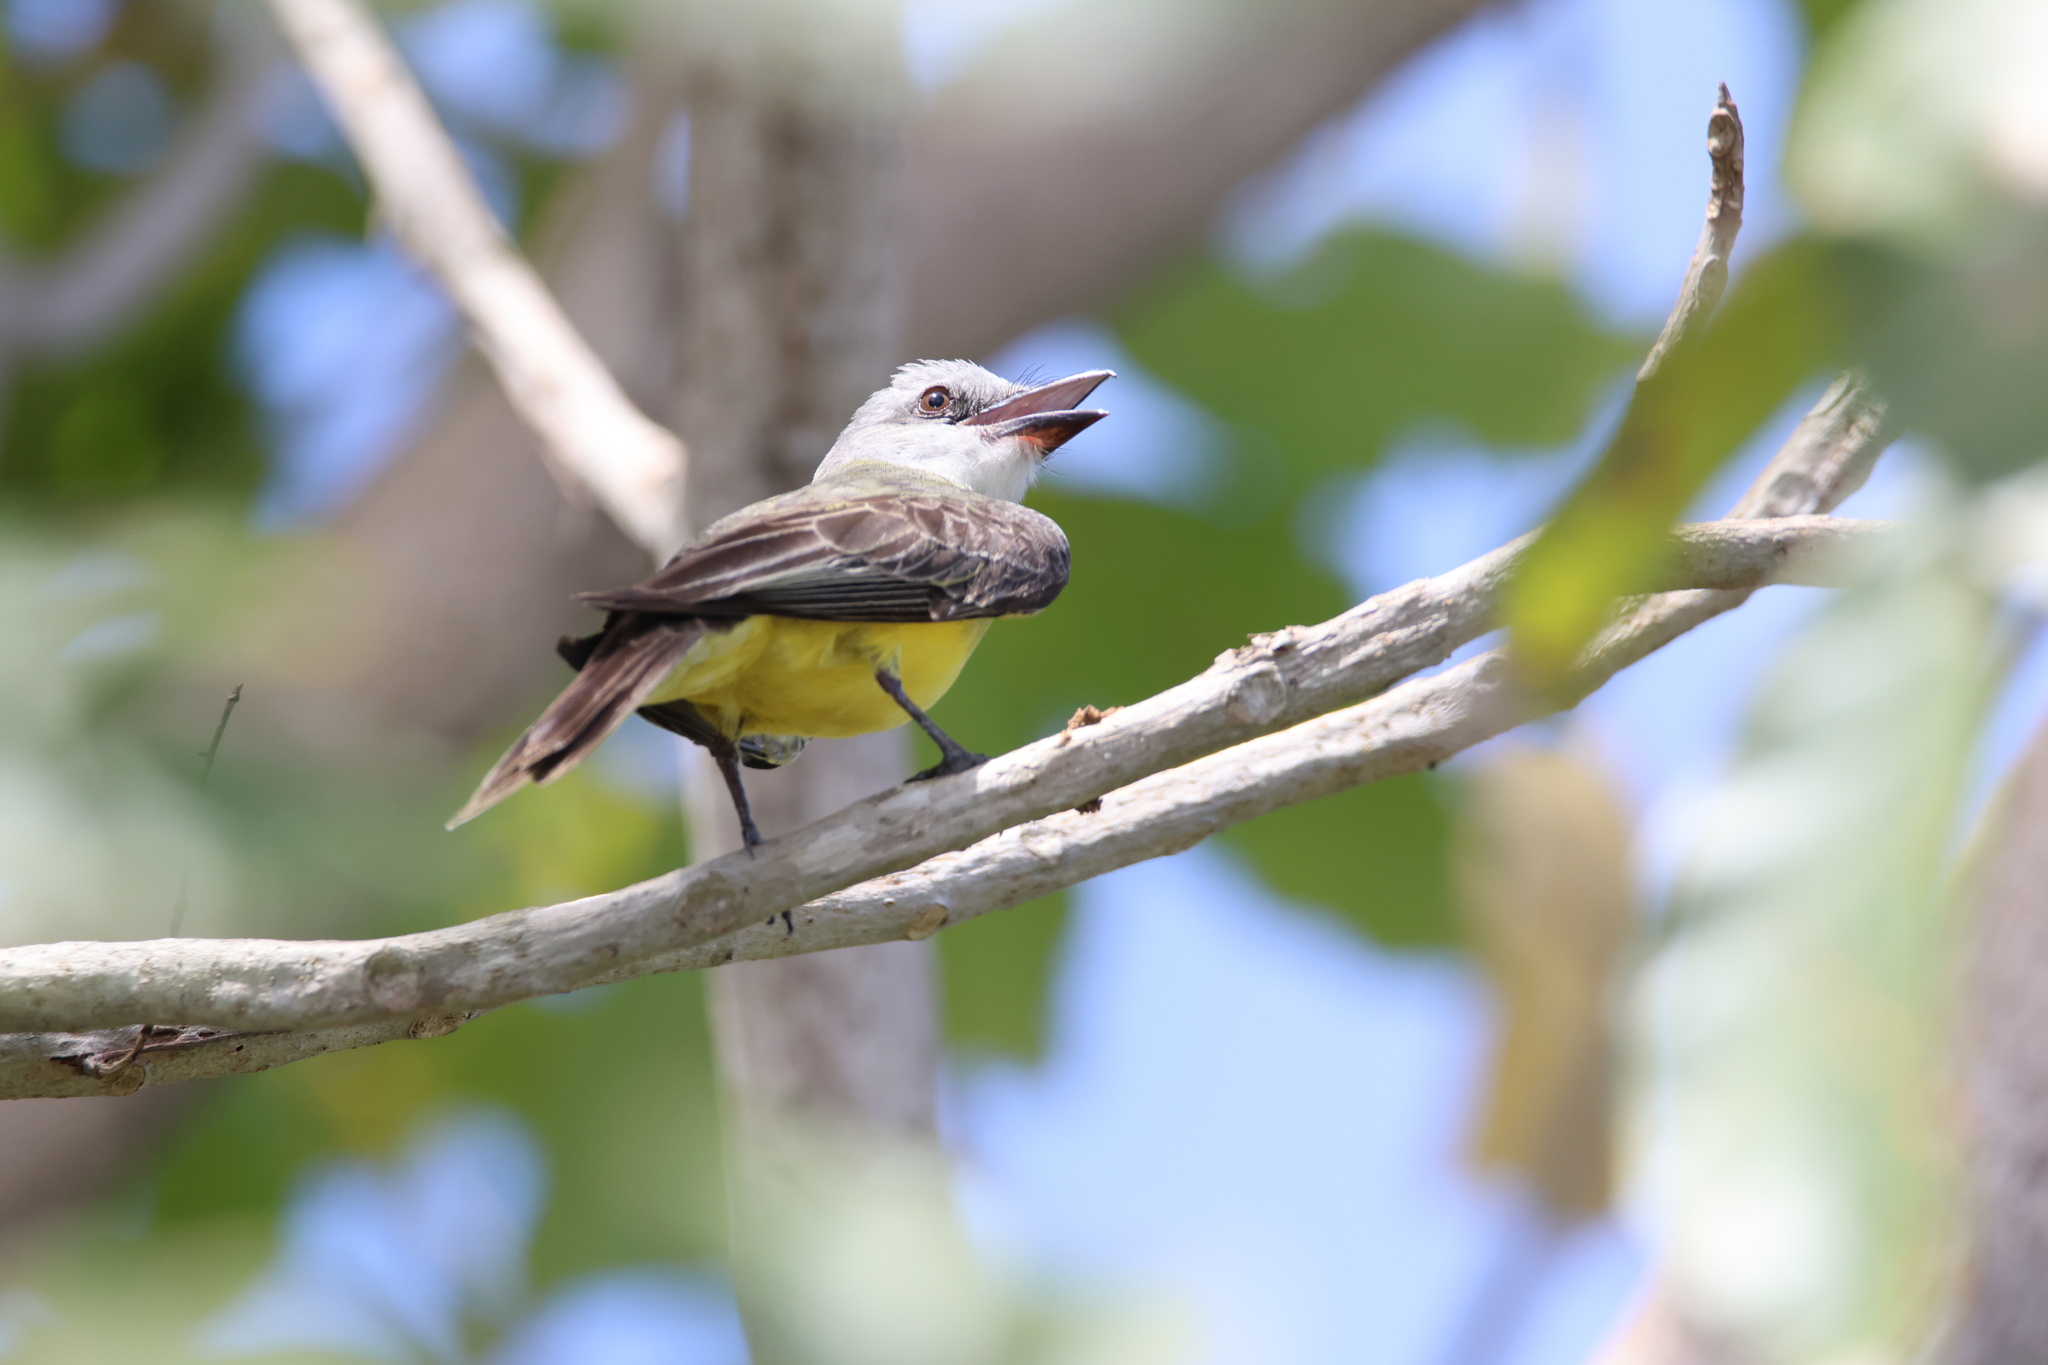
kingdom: Animalia
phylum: Chordata
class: Aves
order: Passeriformes
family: Tyrannidae
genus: Tyrannus
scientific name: Tyrannus melancholicus
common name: Tropical kingbird
